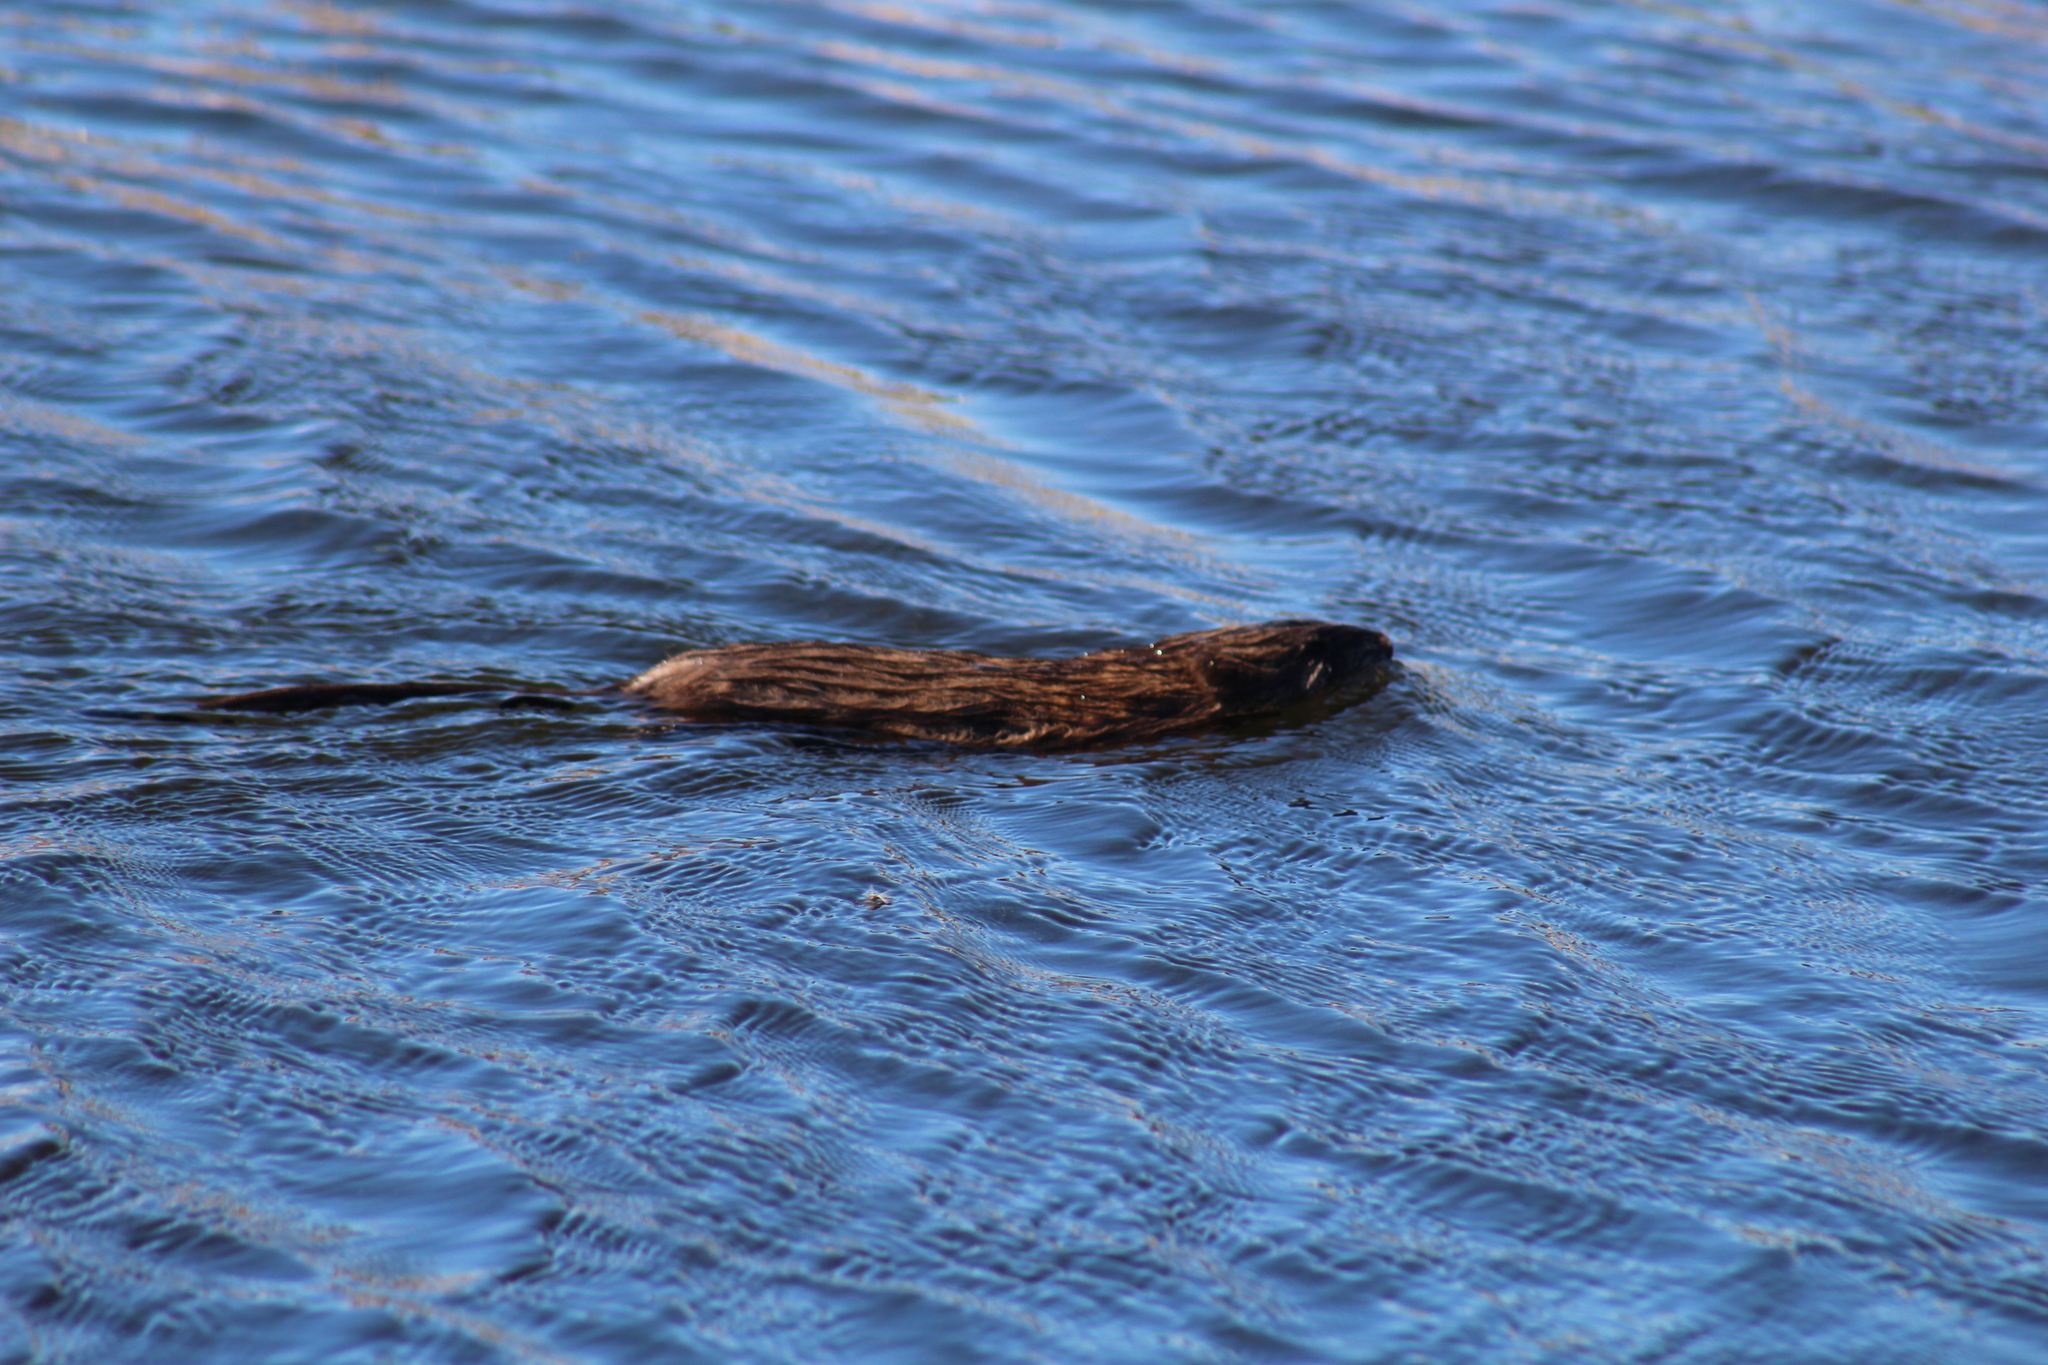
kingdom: Animalia
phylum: Chordata
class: Mammalia
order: Rodentia
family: Cricetidae
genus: Ondatra
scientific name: Ondatra zibethicus
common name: Muskrat
